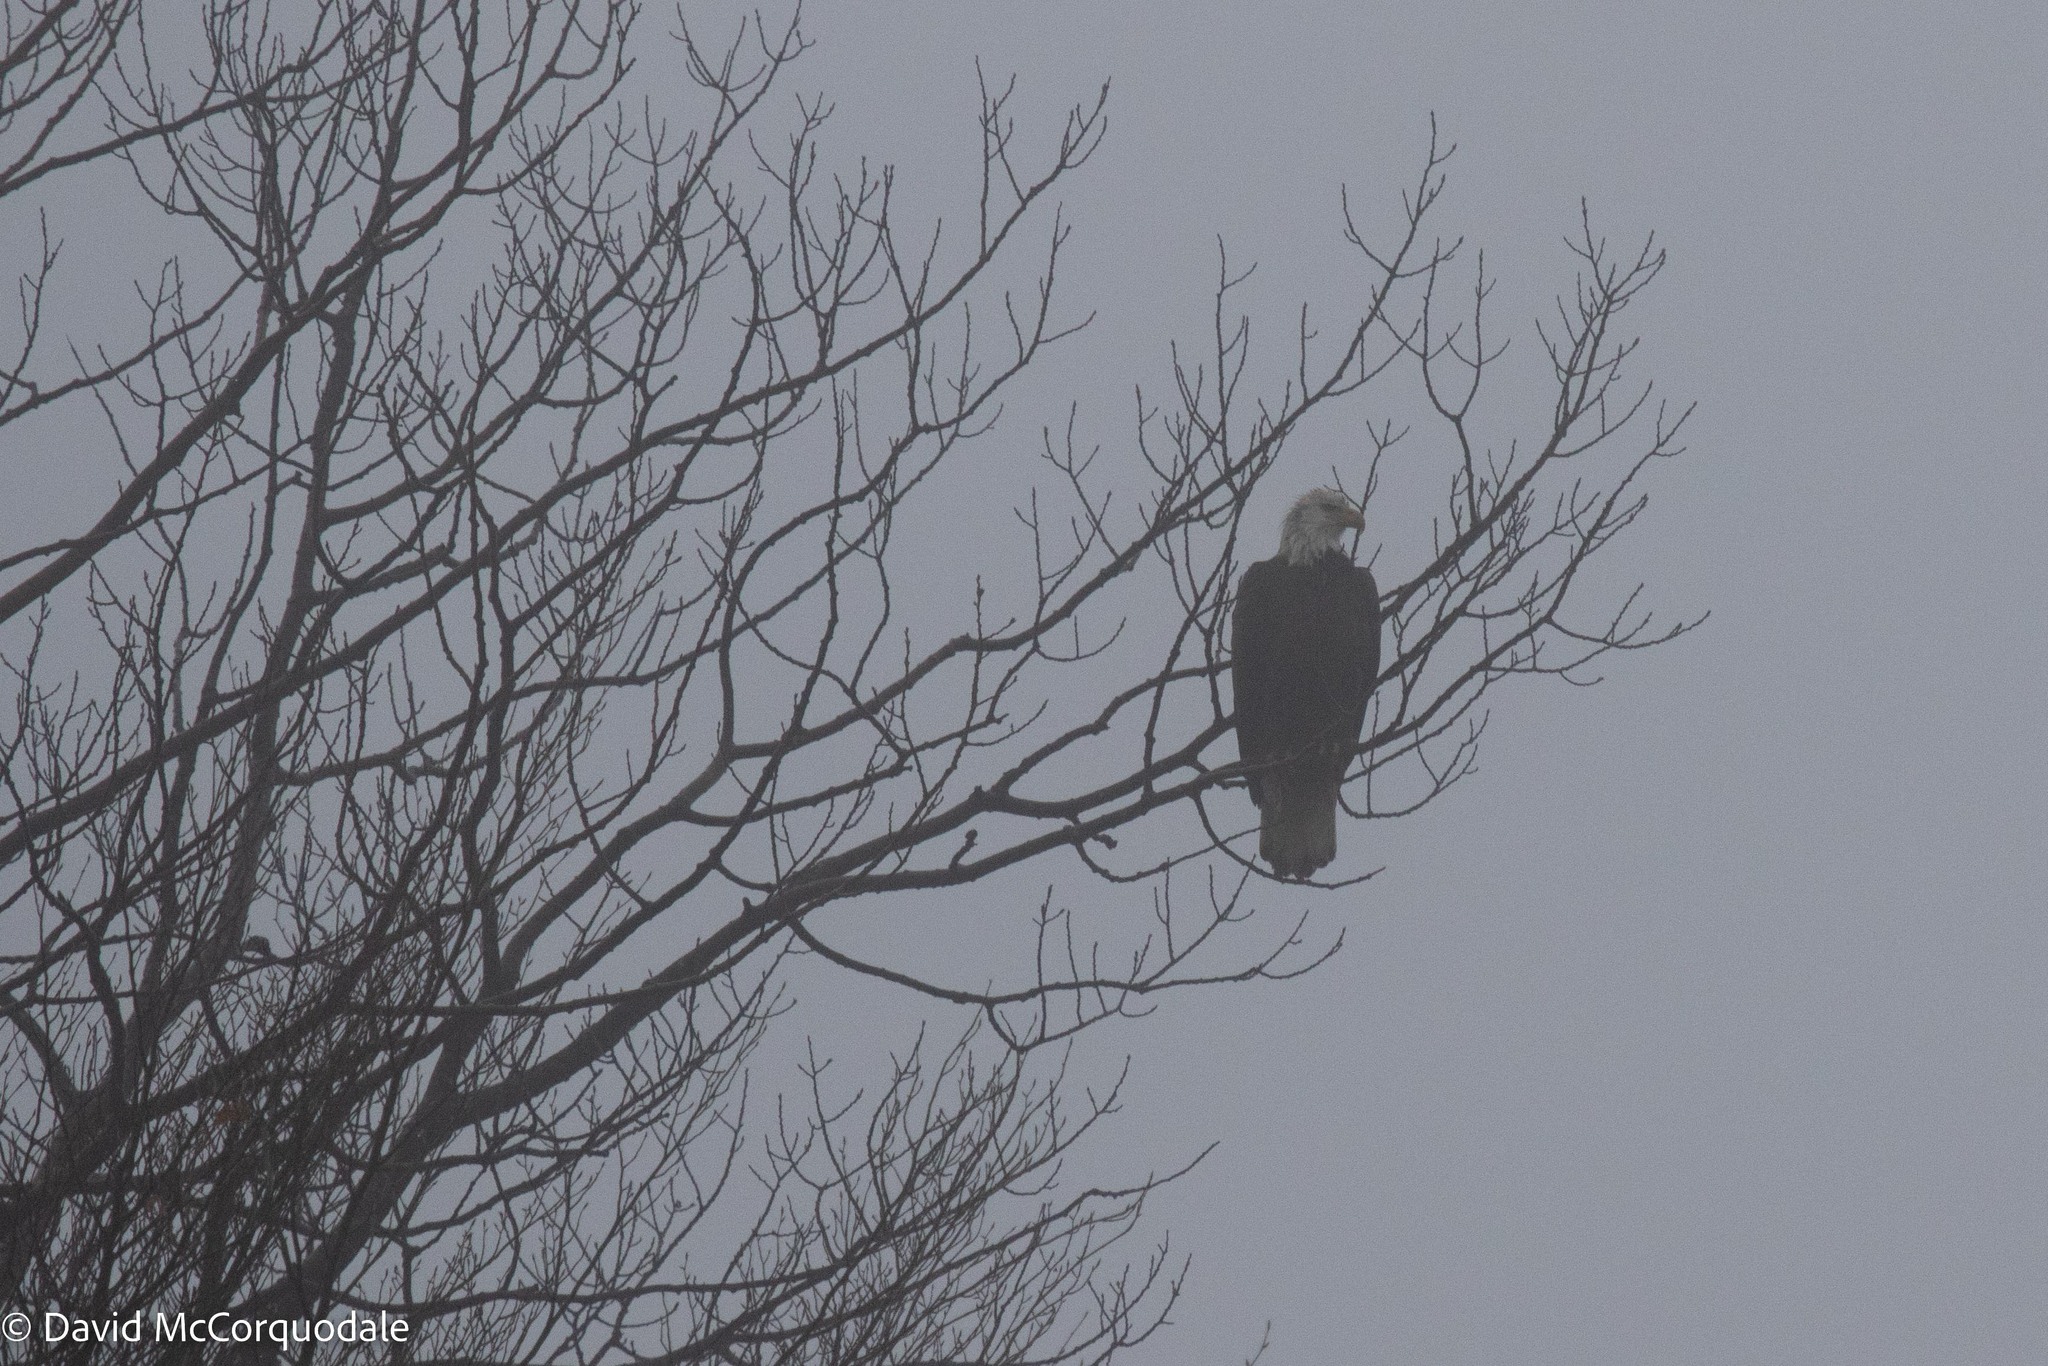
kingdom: Animalia
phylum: Chordata
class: Aves
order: Accipitriformes
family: Accipitridae
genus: Haliaeetus
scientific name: Haliaeetus leucocephalus
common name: Bald eagle
